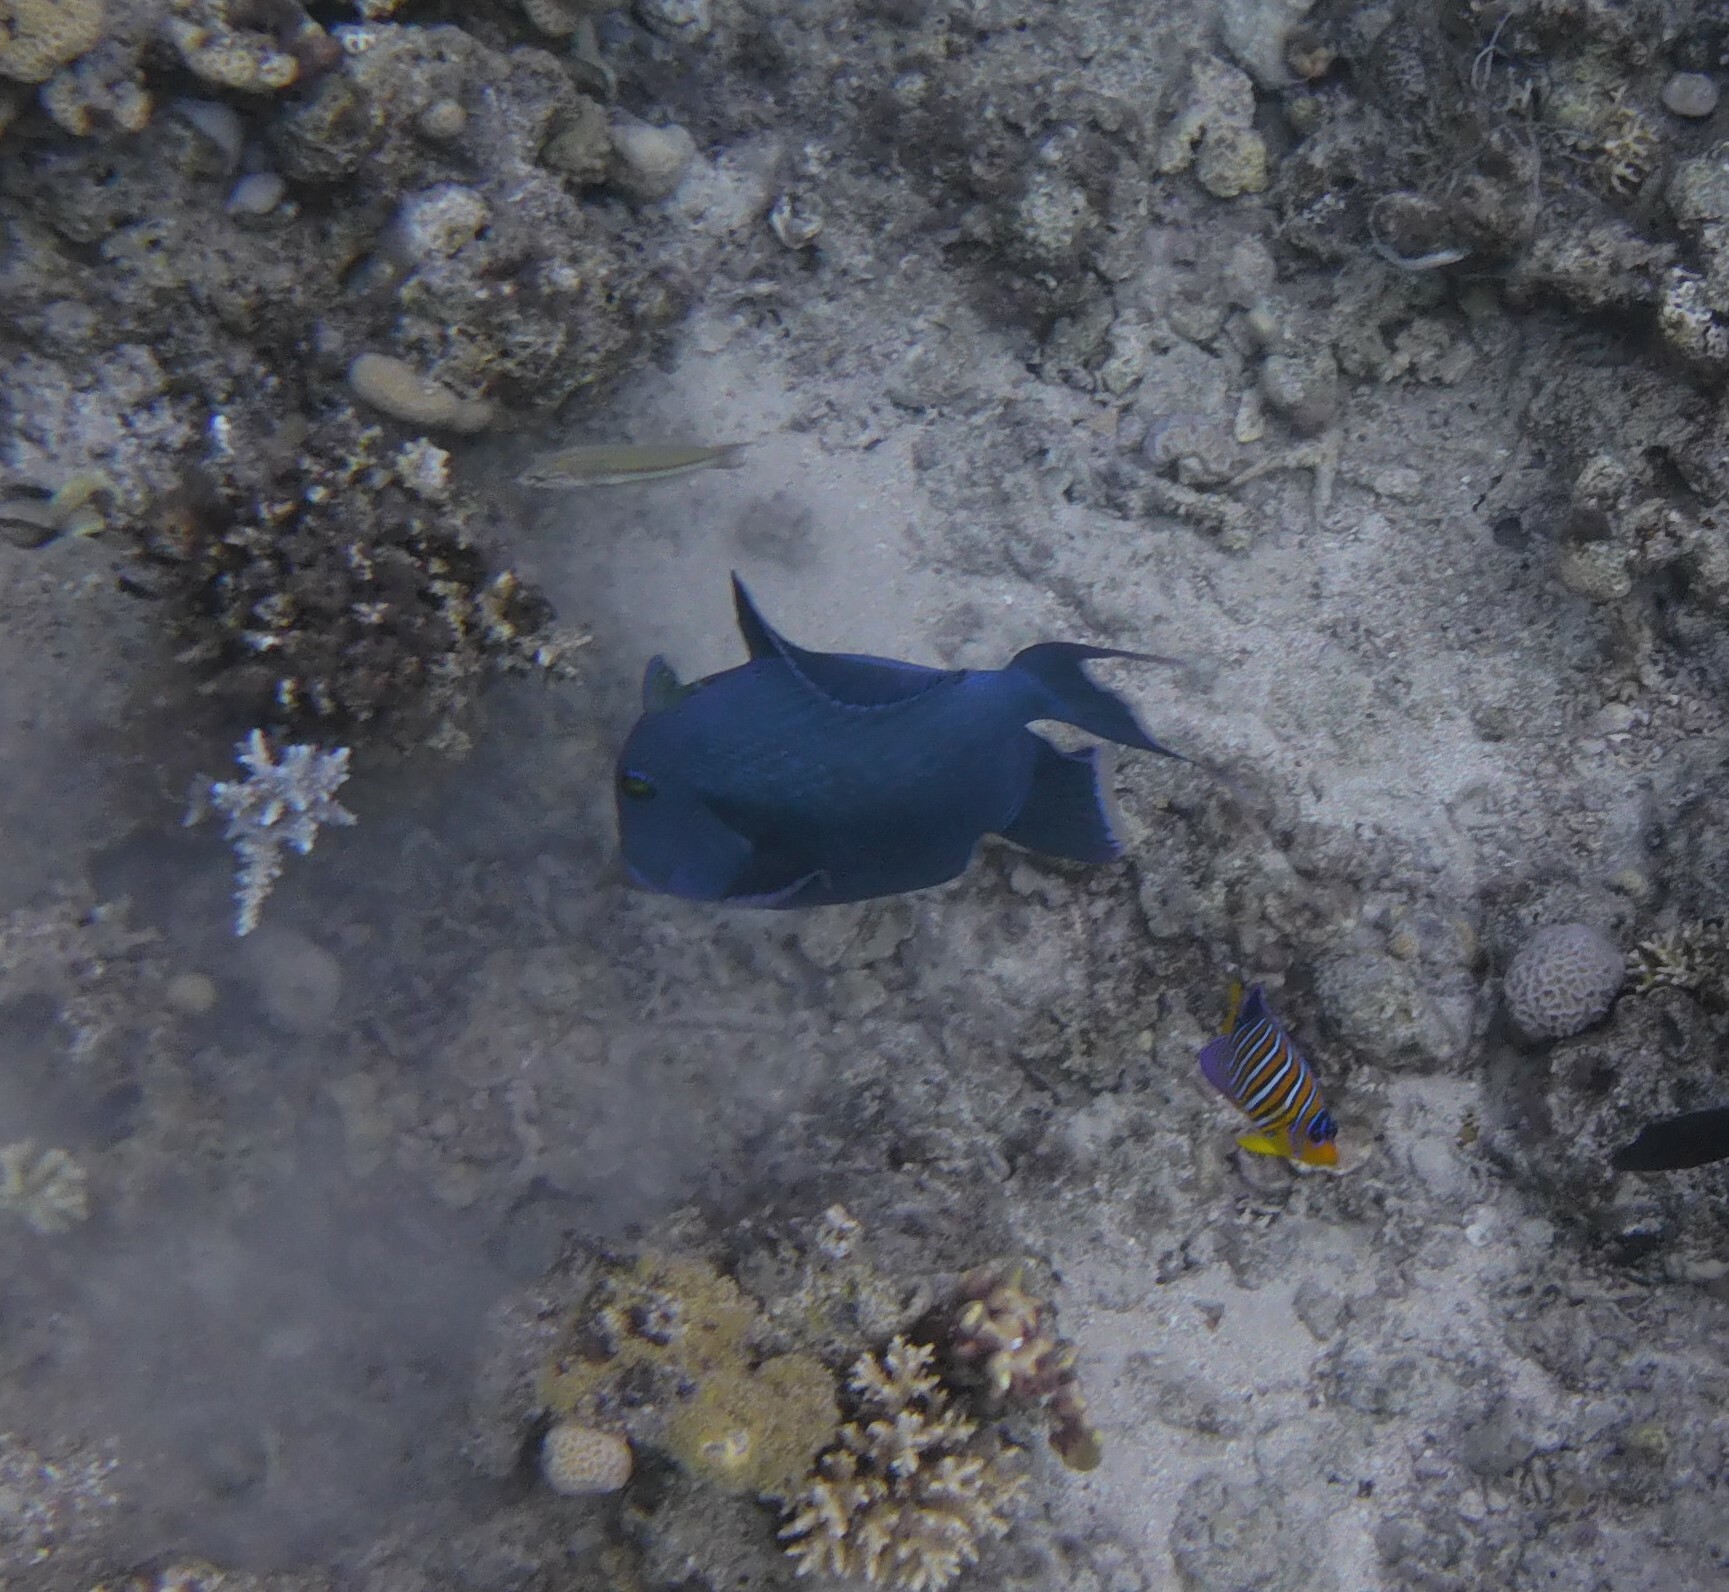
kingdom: Animalia
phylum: Chordata
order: Tetraodontiformes
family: Balistidae
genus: Pseudobalistes
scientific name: Pseudobalistes fuscus
